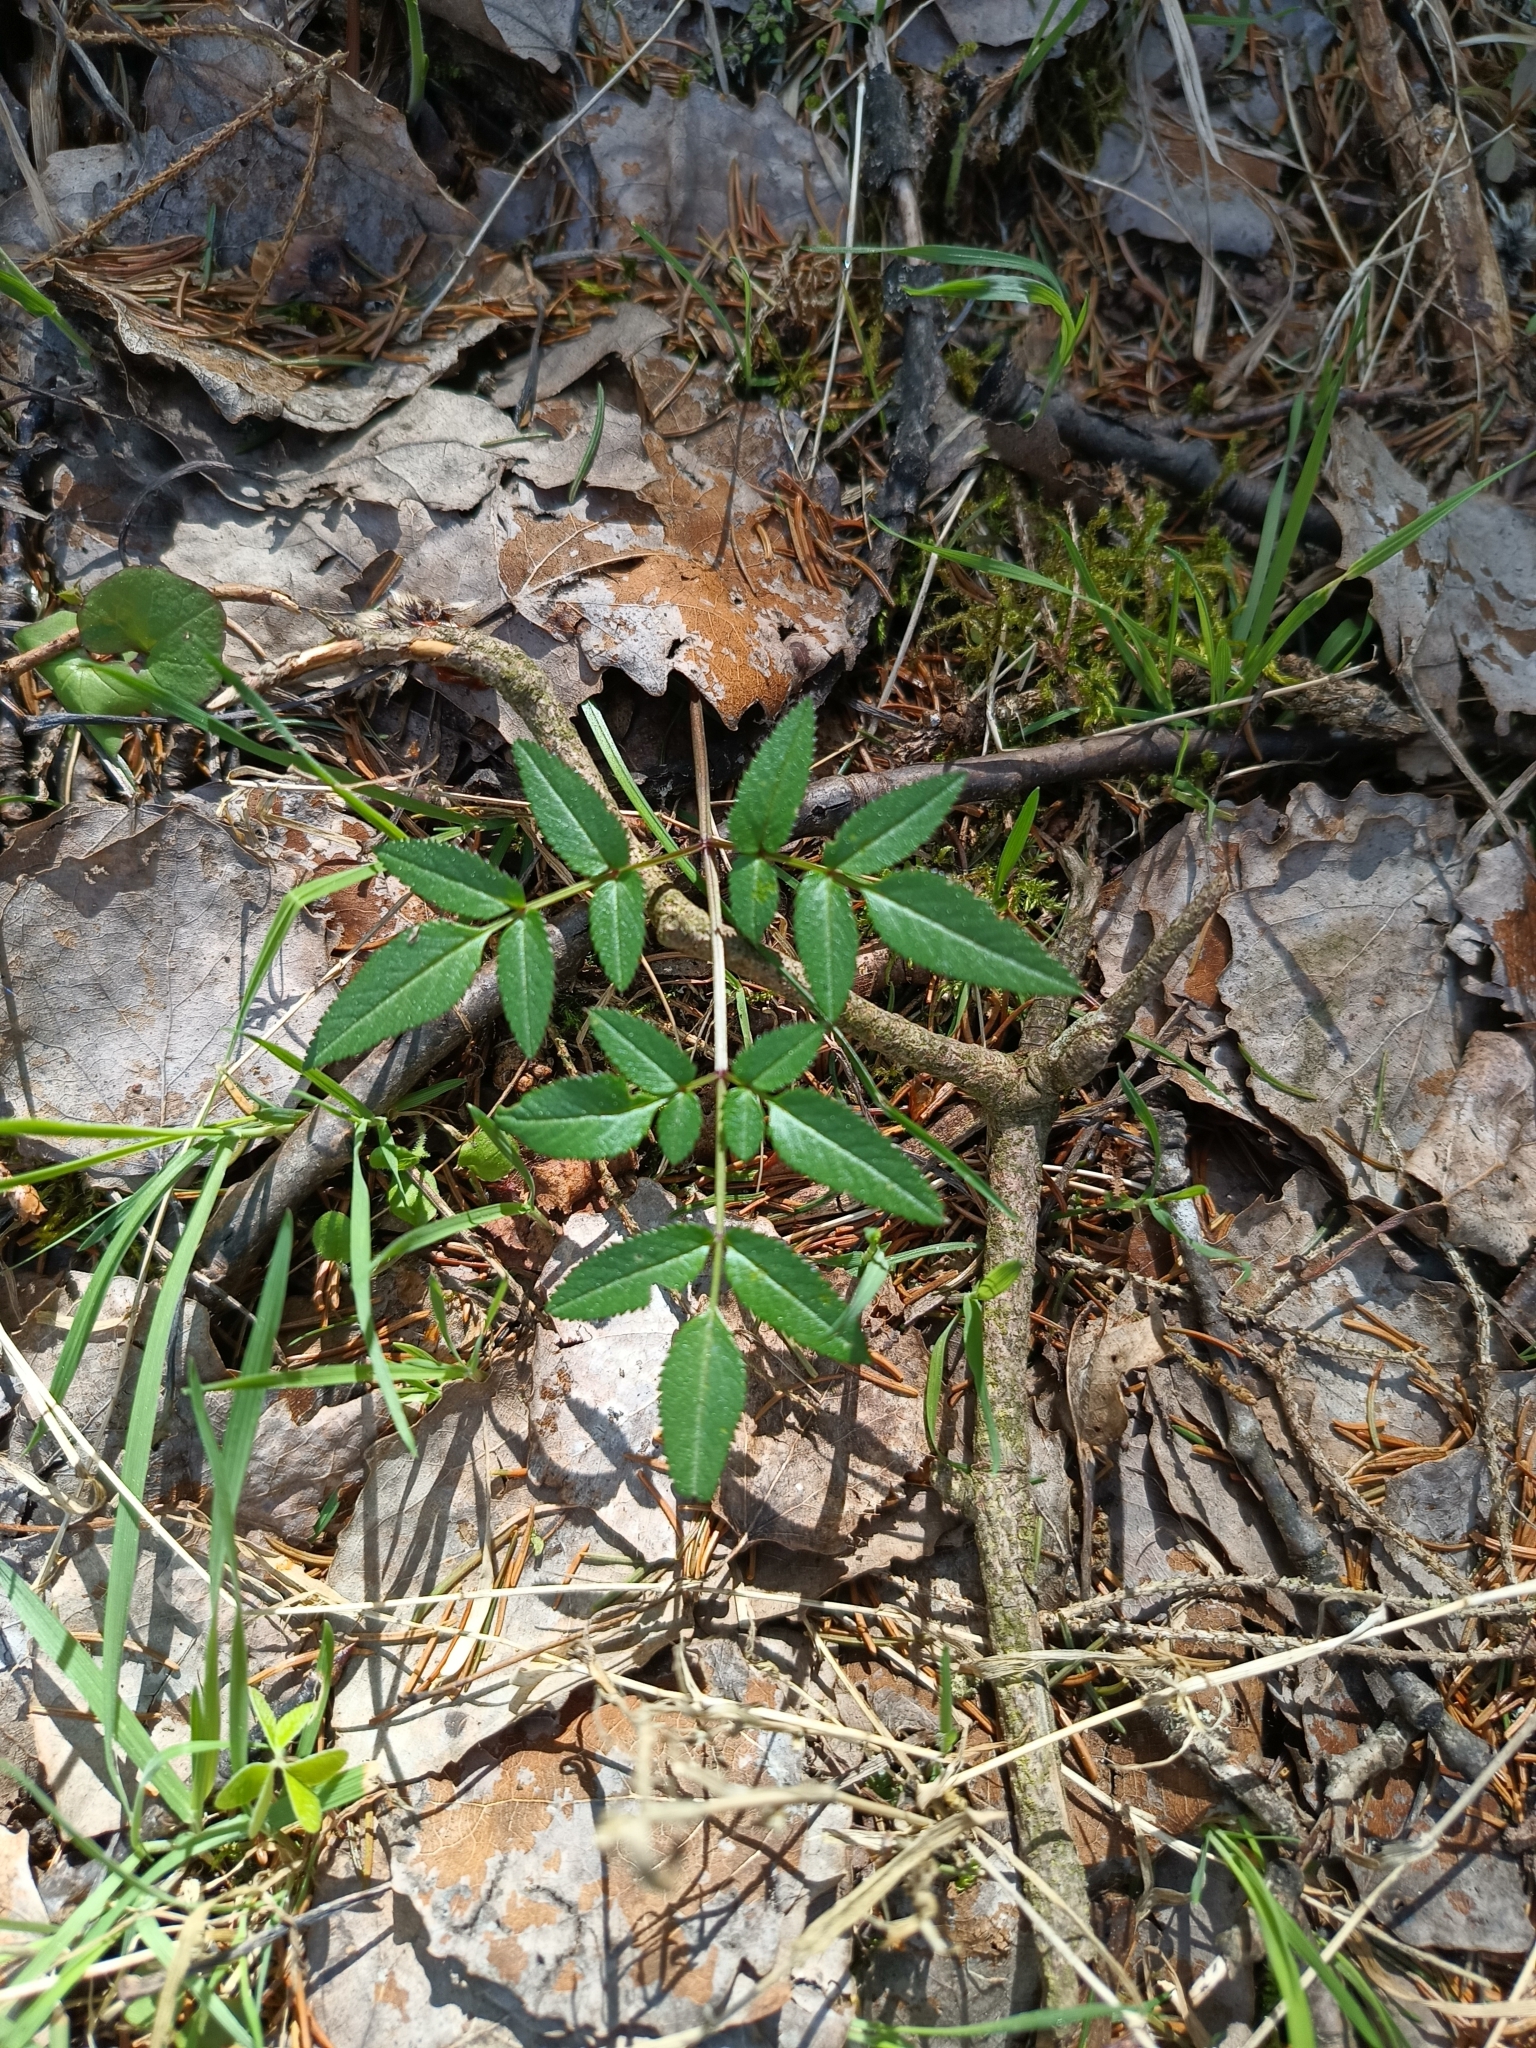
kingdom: Plantae
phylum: Tracheophyta
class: Magnoliopsida
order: Apiales
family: Apiaceae
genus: Angelica
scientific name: Angelica sylvestris
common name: Wild angelica
